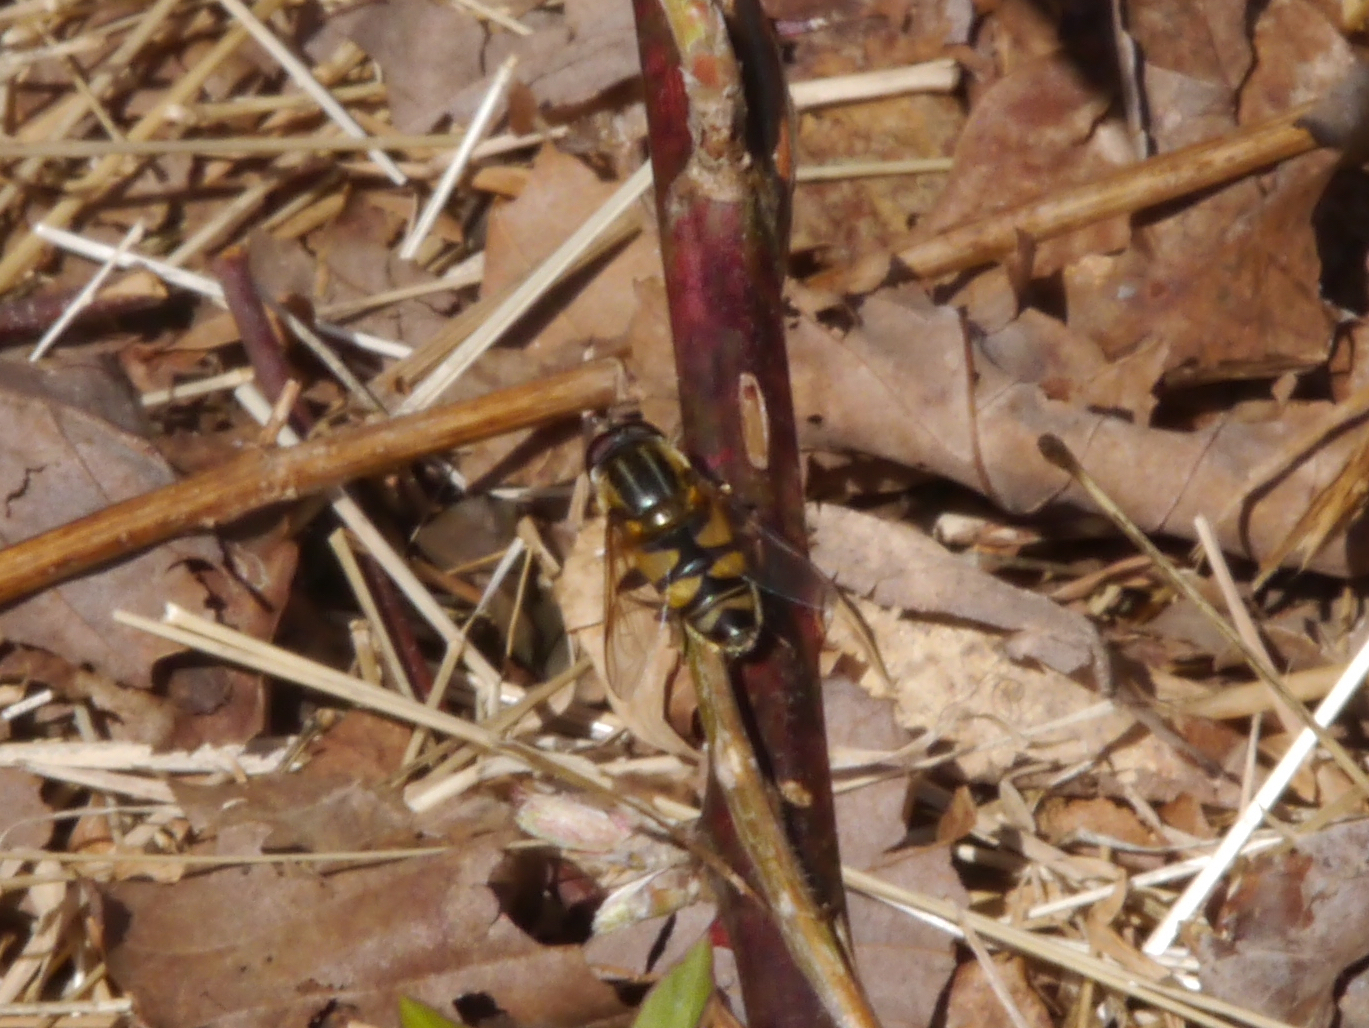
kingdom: Animalia
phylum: Arthropoda
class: Insecta
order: Diptera
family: Syrphidae
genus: Helophilus
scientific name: Helophilus fasciatus
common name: Narrow-headed marsh fly
